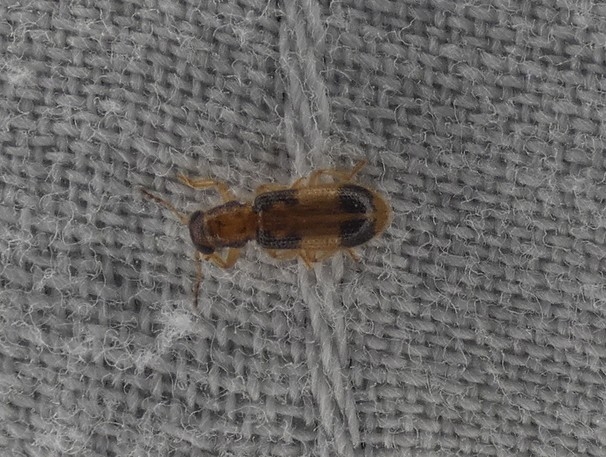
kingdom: Animalia
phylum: Arthropoda
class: Insecta
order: Coleoptera
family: Cleridae
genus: Cregya
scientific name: Cregya mixta
